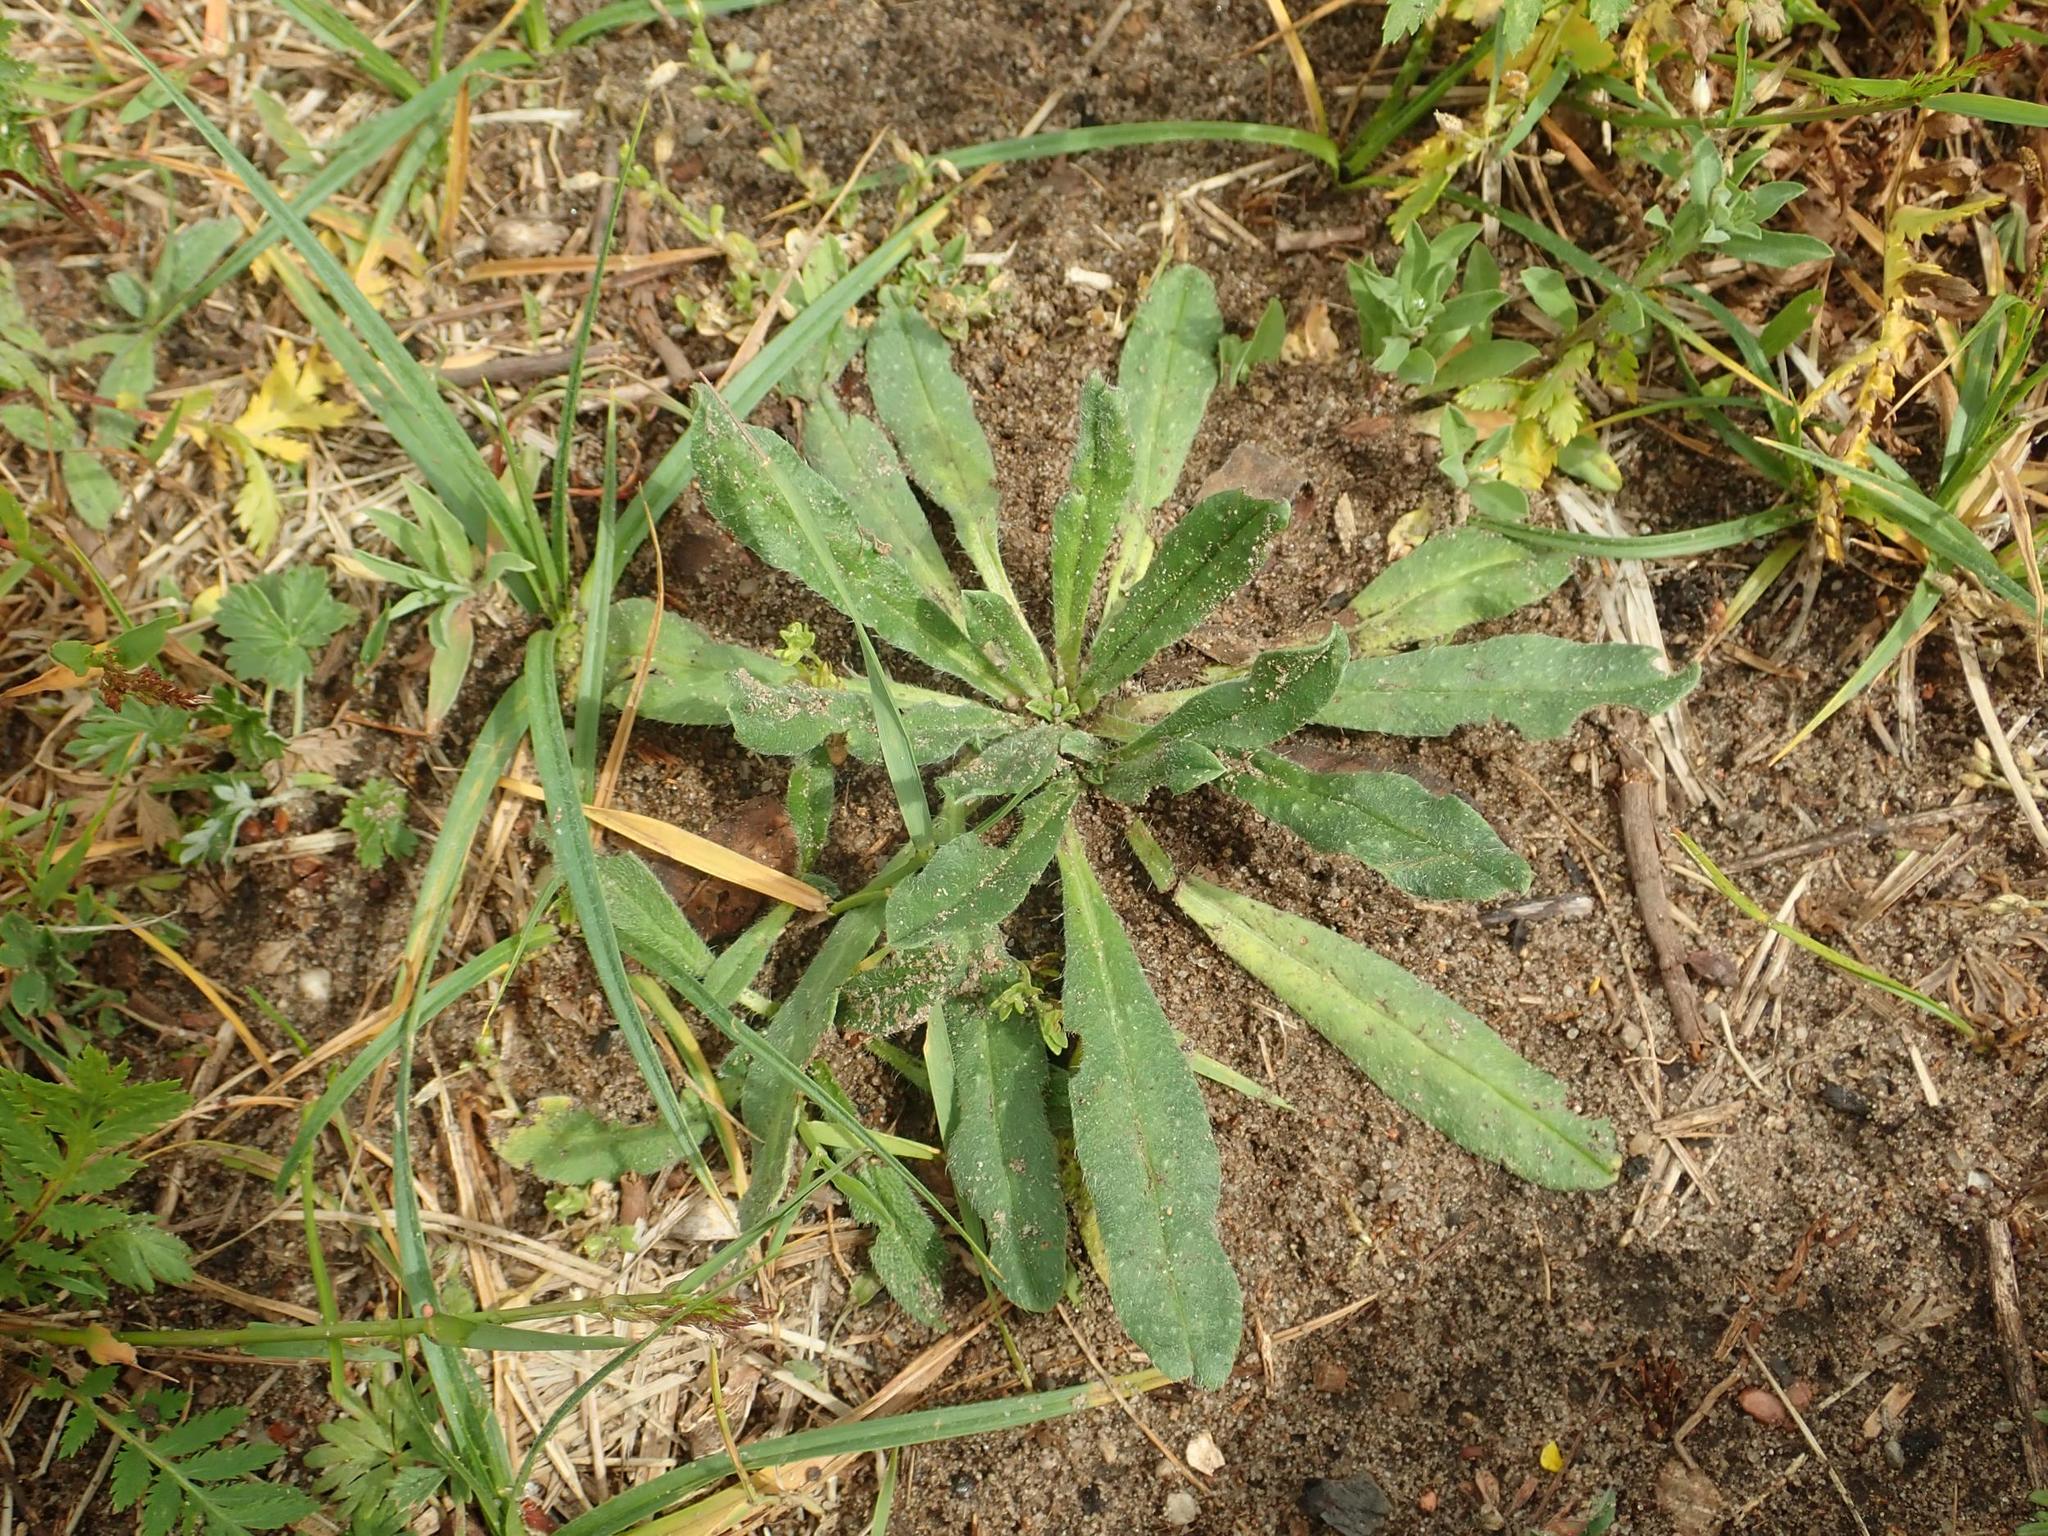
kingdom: Plantae
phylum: Tracheophyta
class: Magnoliopsida
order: Boraginales
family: Boraginaceae
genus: Echium
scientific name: Echium vulgare
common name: Common viper's bugloss
